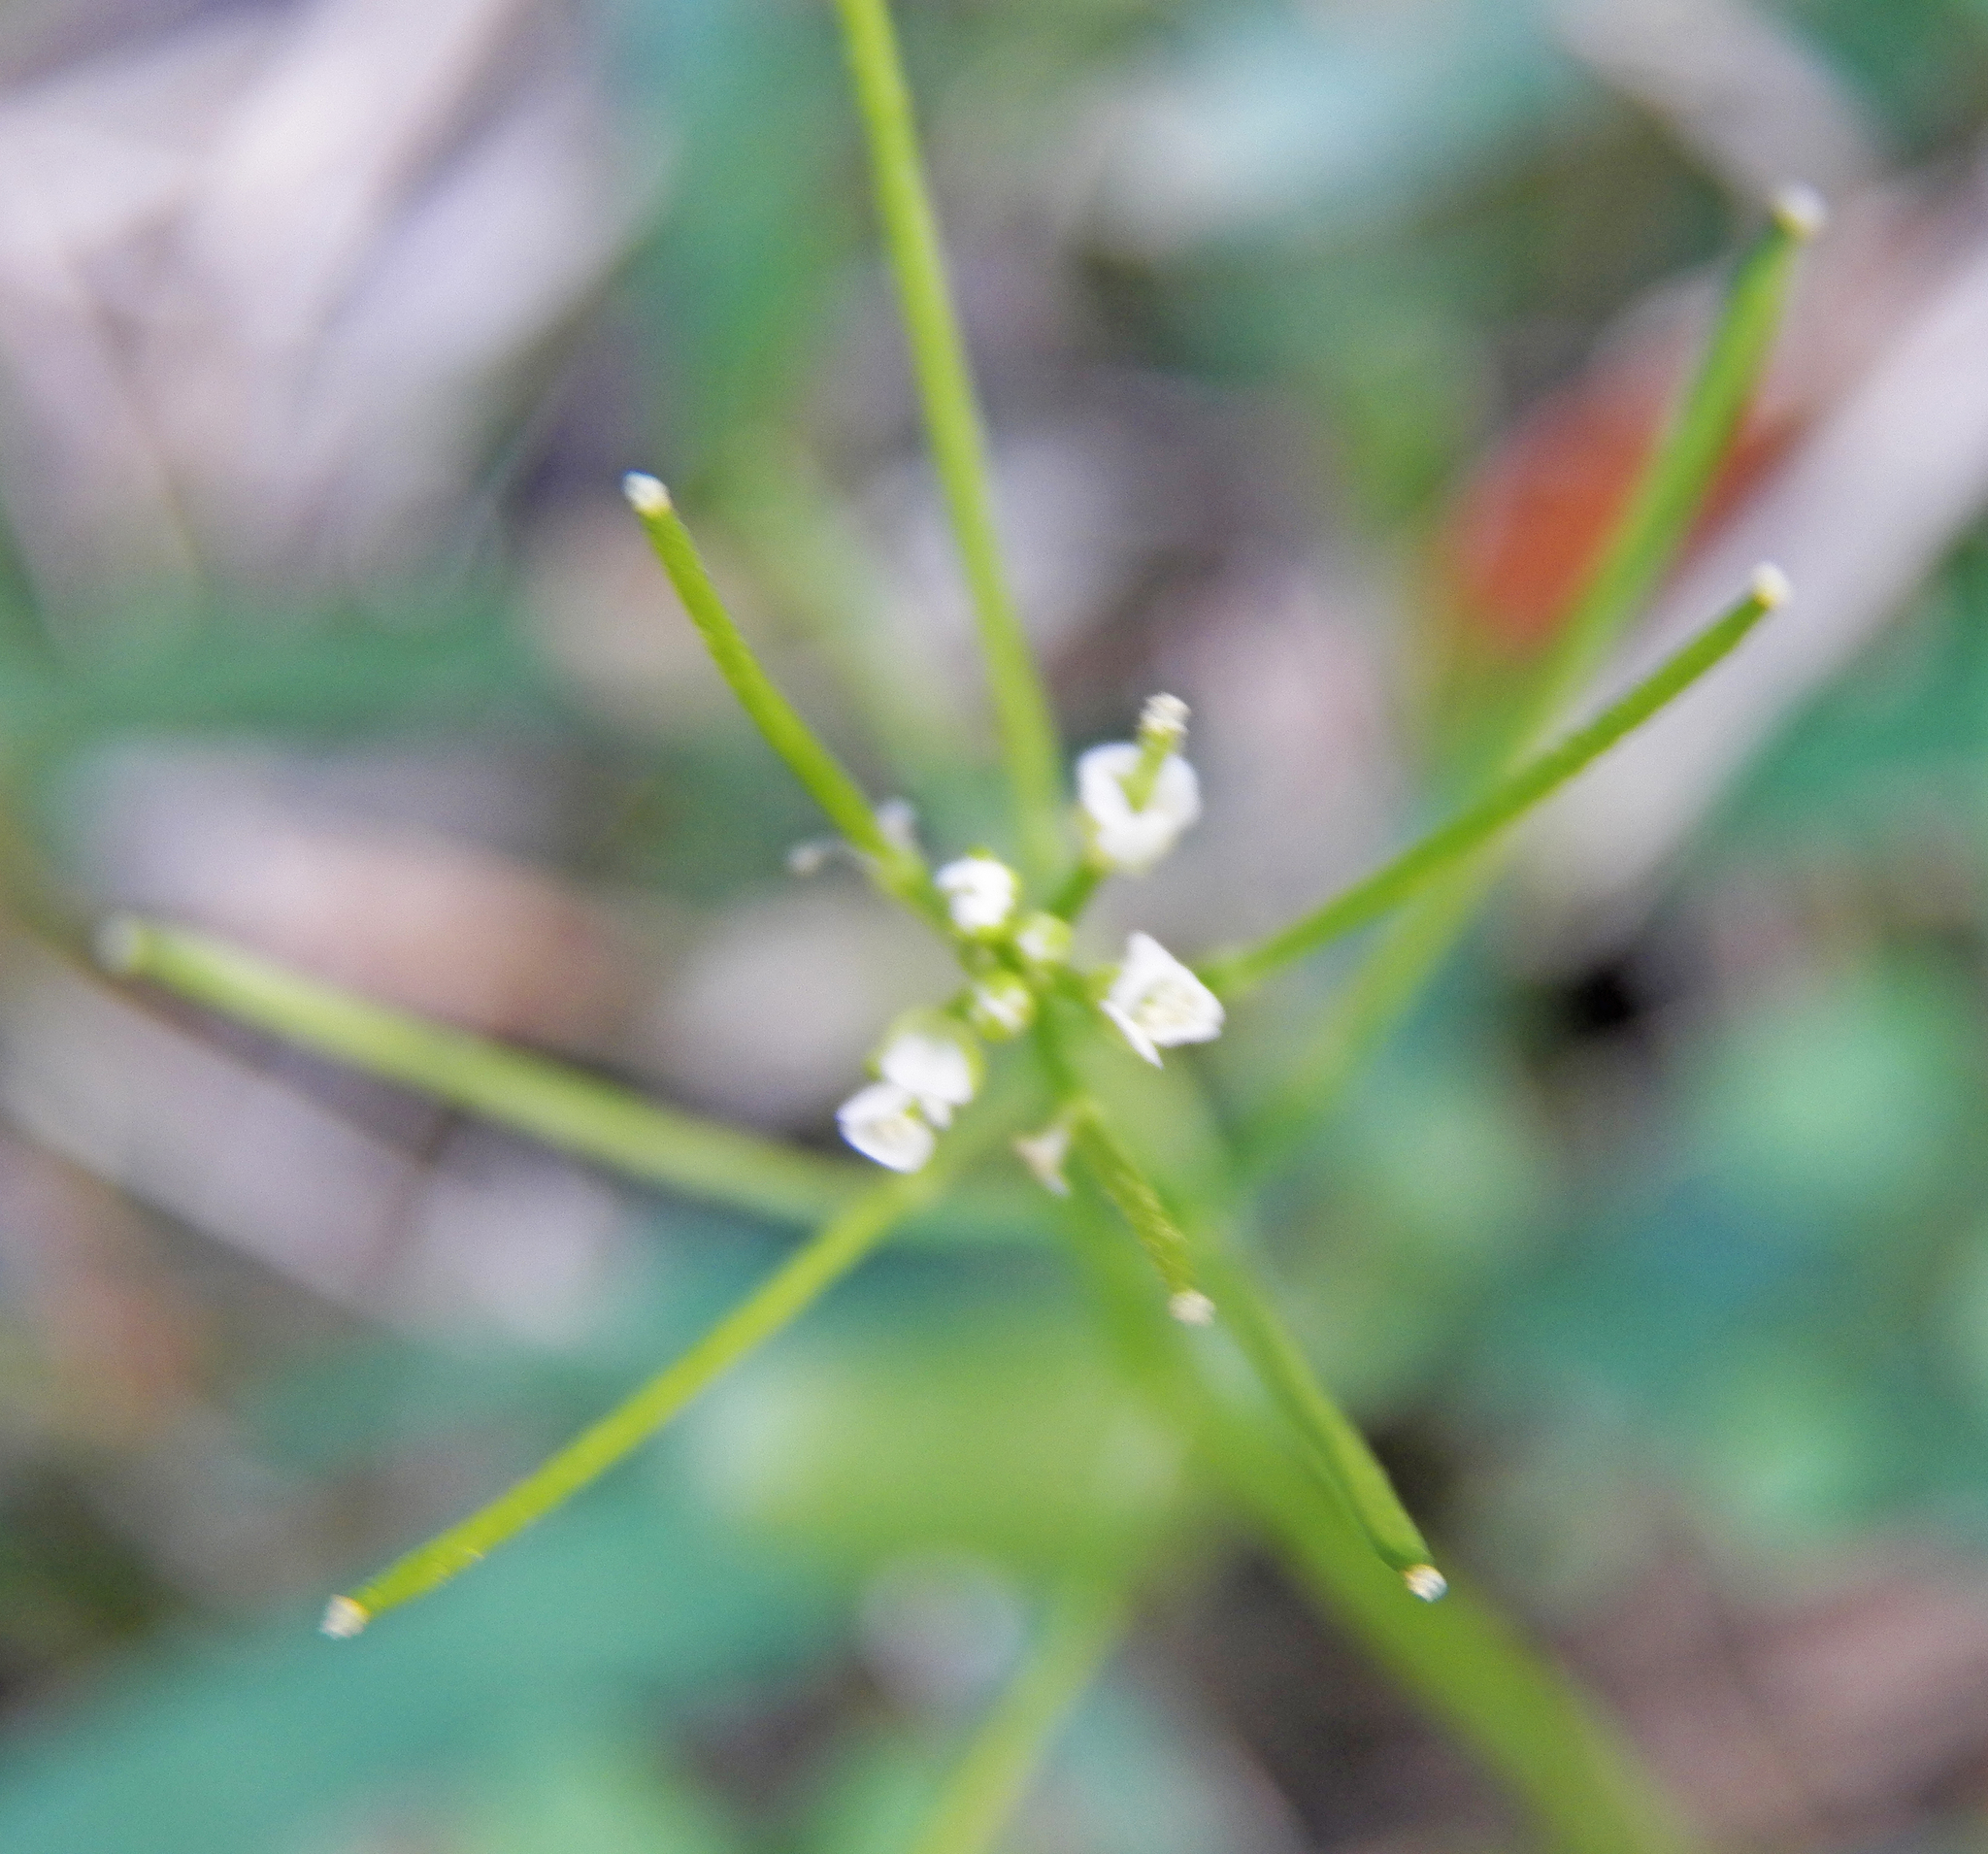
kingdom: Plantae
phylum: Tracheophyta
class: Magnoliopsida
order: Brassicales
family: Brassicaceae
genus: Cardamine
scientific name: Cardamine occulta
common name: Asian wavy bittercress
